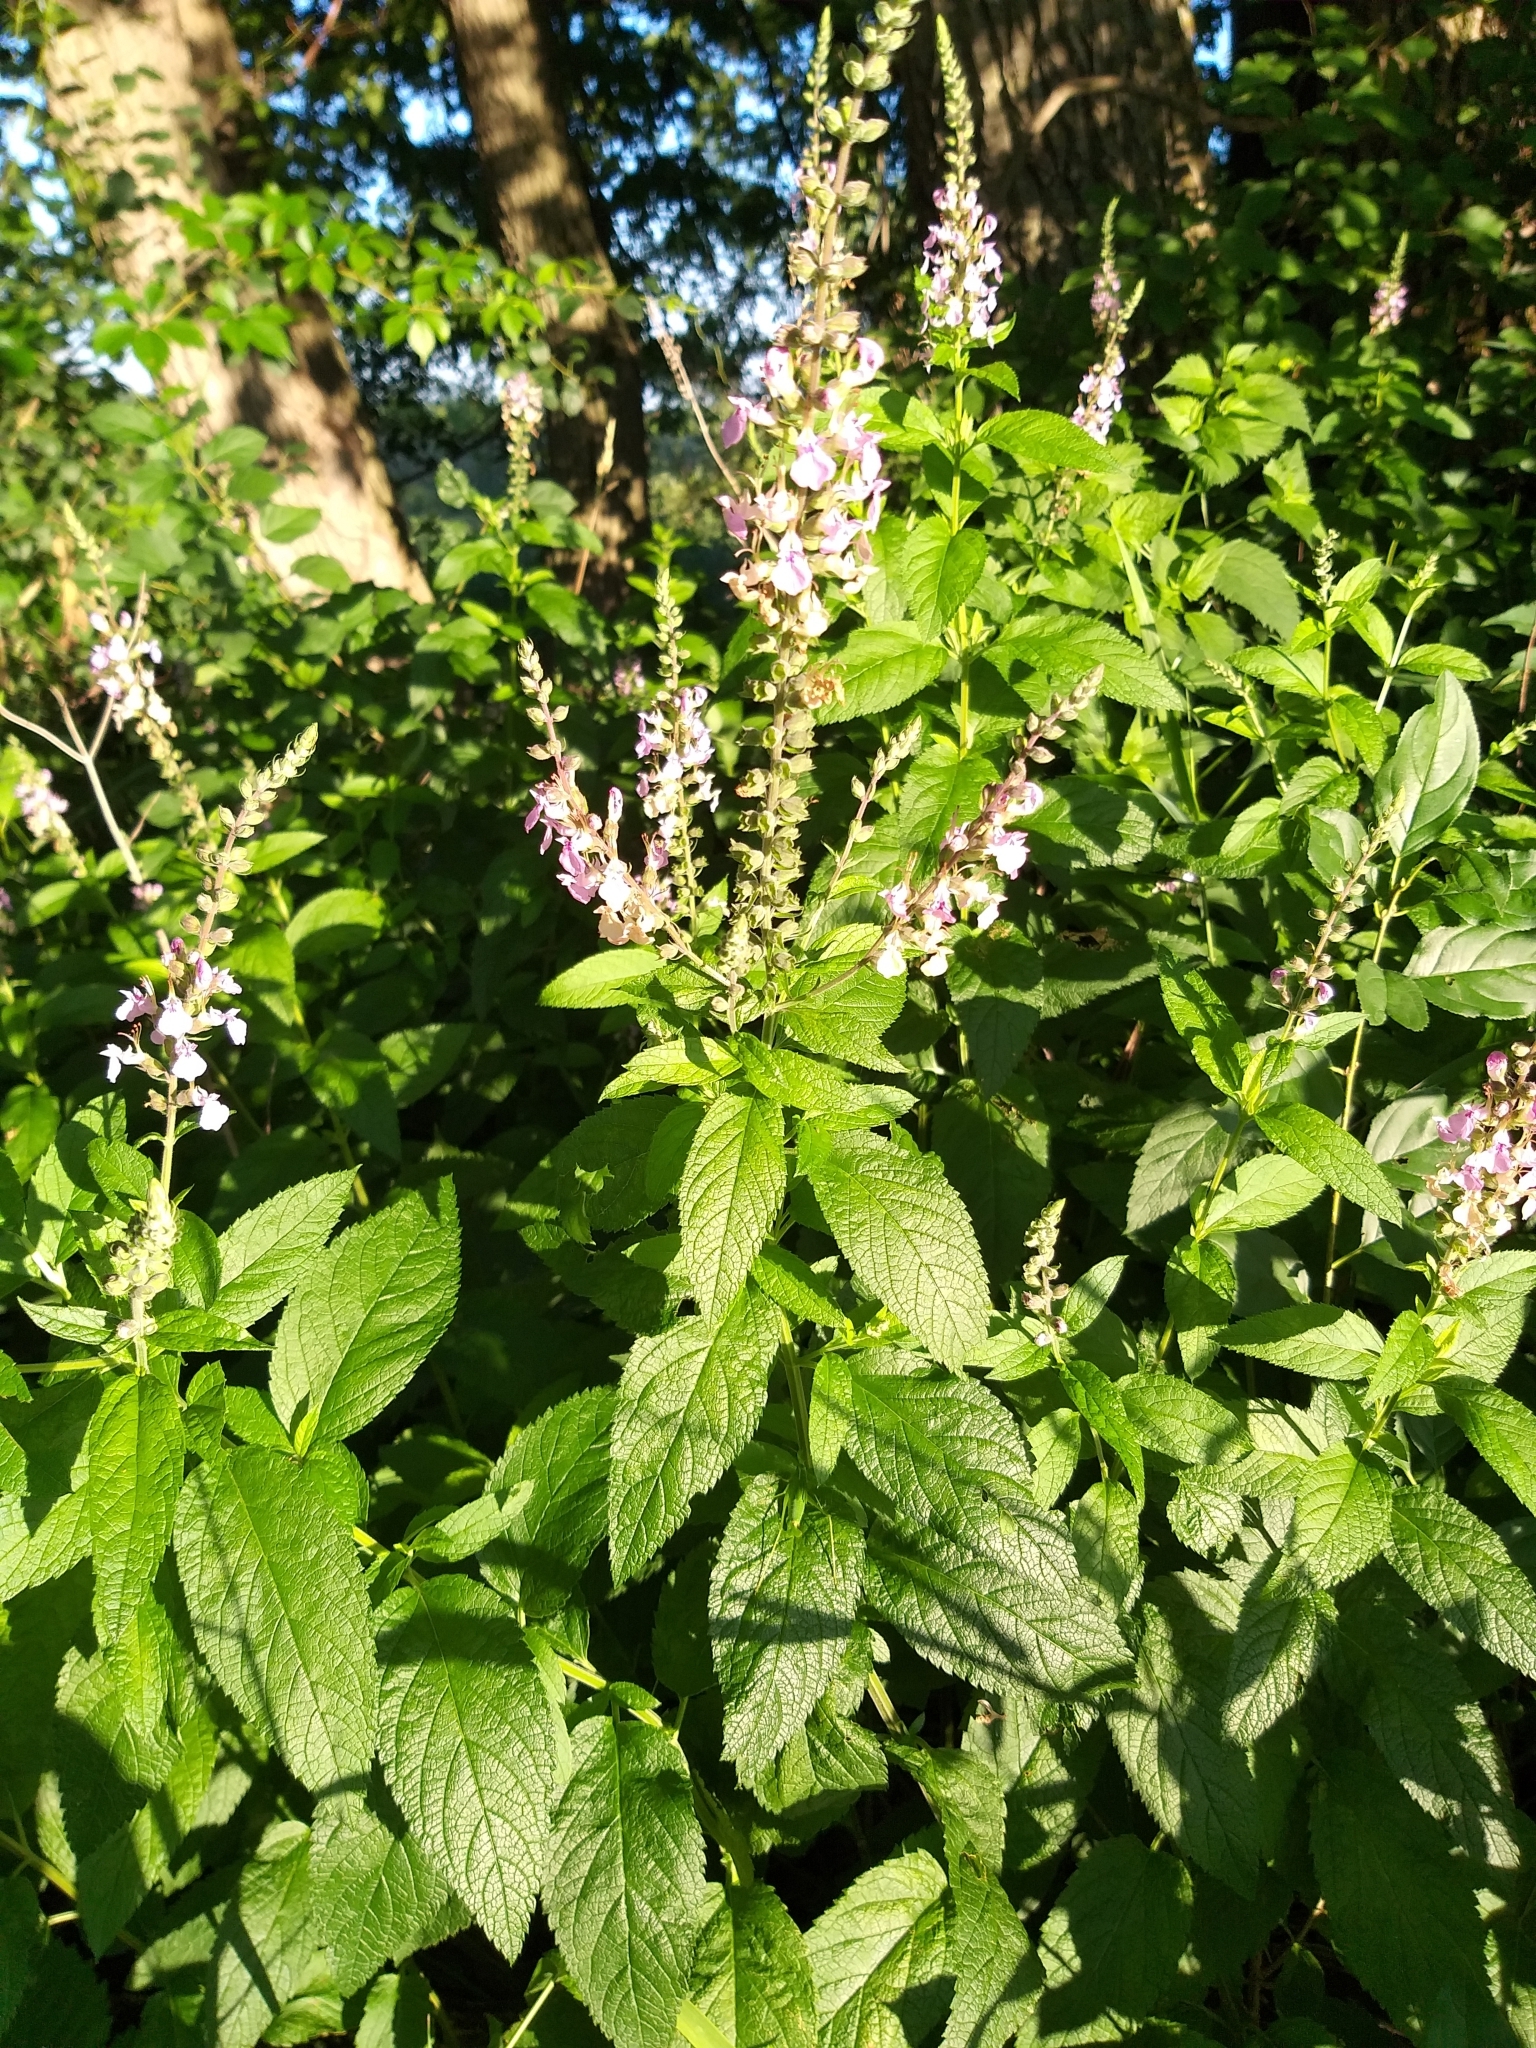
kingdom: Plantae
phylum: Tracheophyta
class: Magnoliopsida
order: Lamiales
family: Lamiaceae
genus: Teucrium
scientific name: Teucrium canadense
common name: American germander
